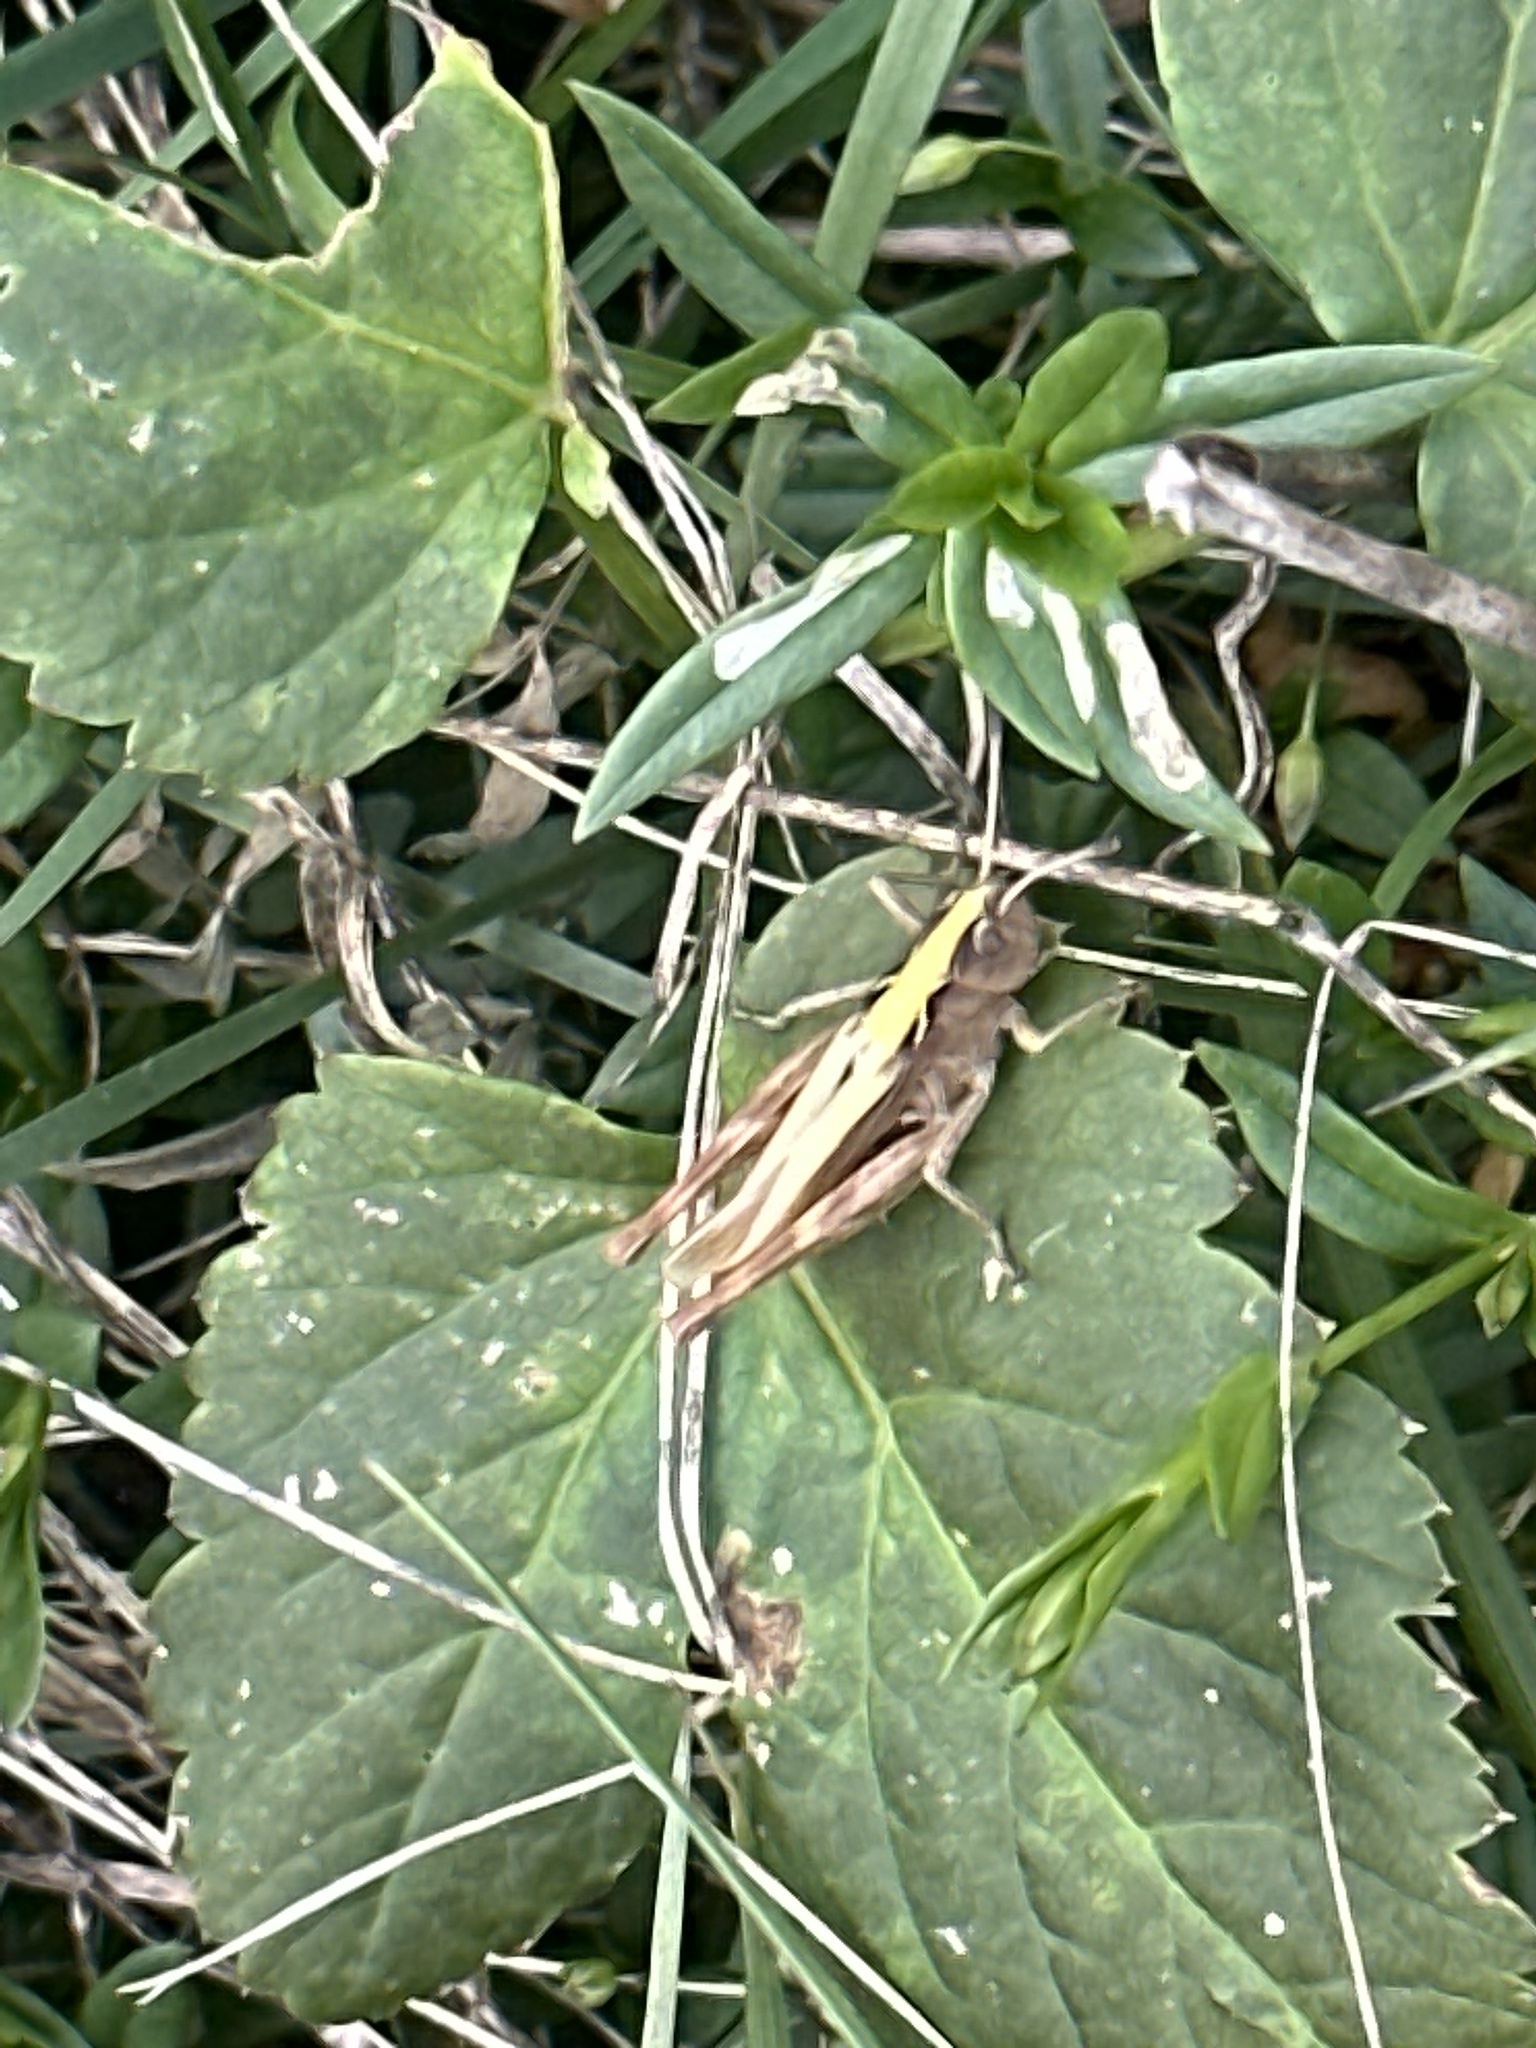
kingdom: Animalia
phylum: Arthropoda
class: Insecta
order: Orthoptera
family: Acrididae
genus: Gomphocerippus
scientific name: Gomphocerippus rufus
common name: Rufous grasshopper
